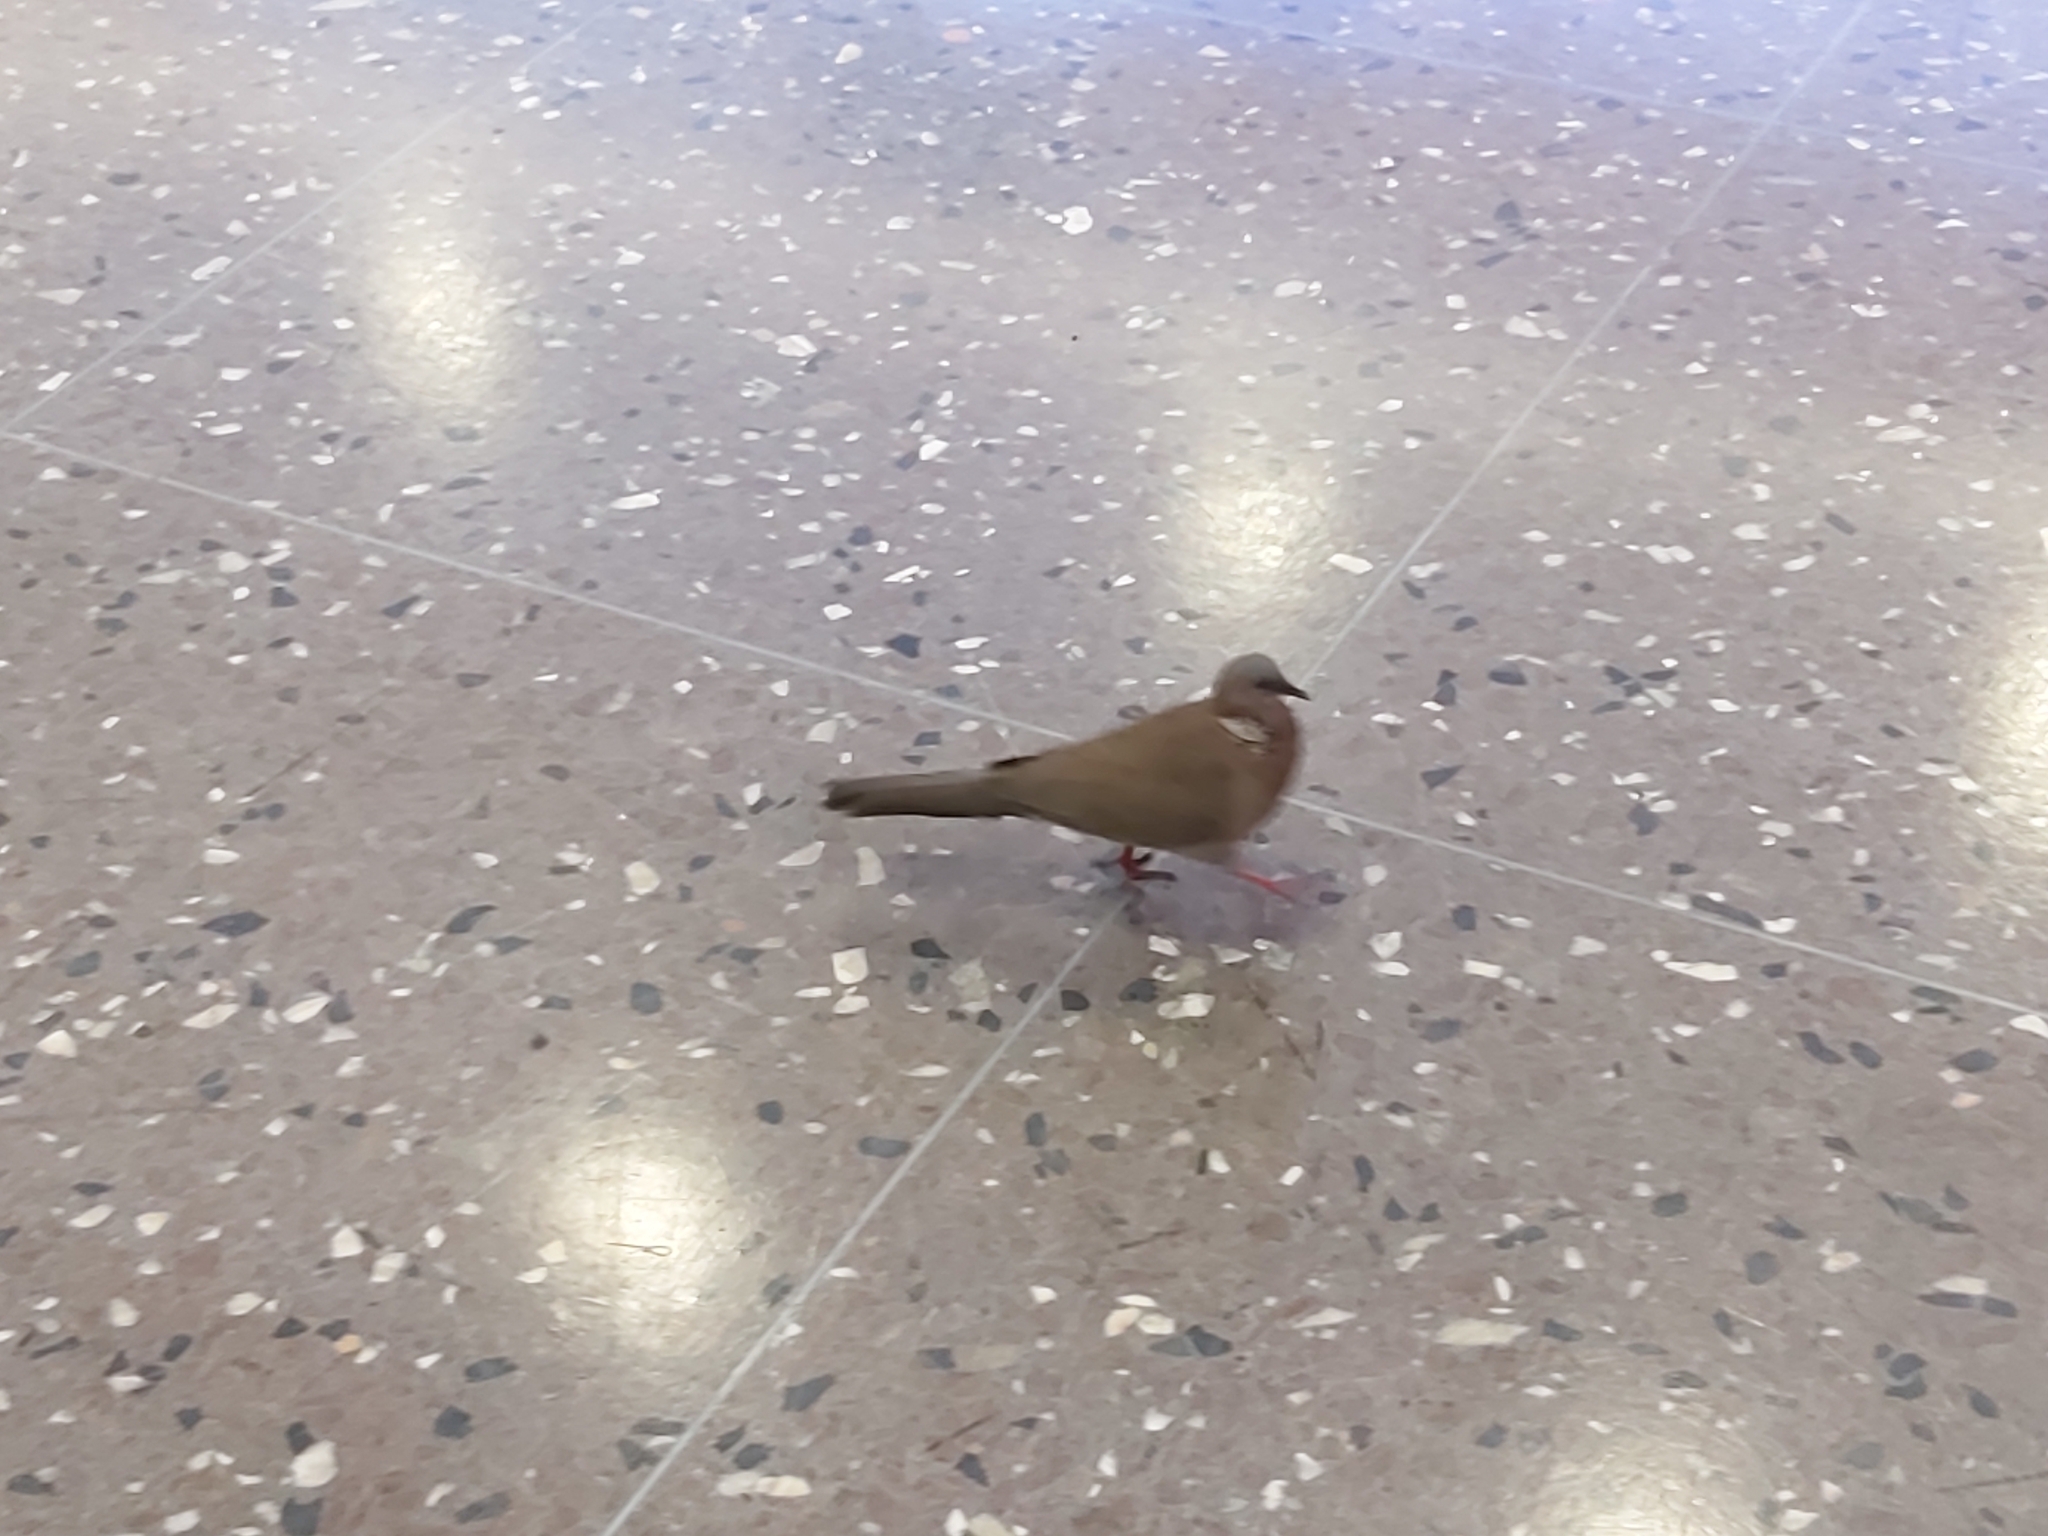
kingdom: Animalia
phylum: Chordata
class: Aves
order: Columbiformes
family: Columbidae
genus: Spilopelia
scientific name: Spilopelia chinensis
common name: Spotted dove
